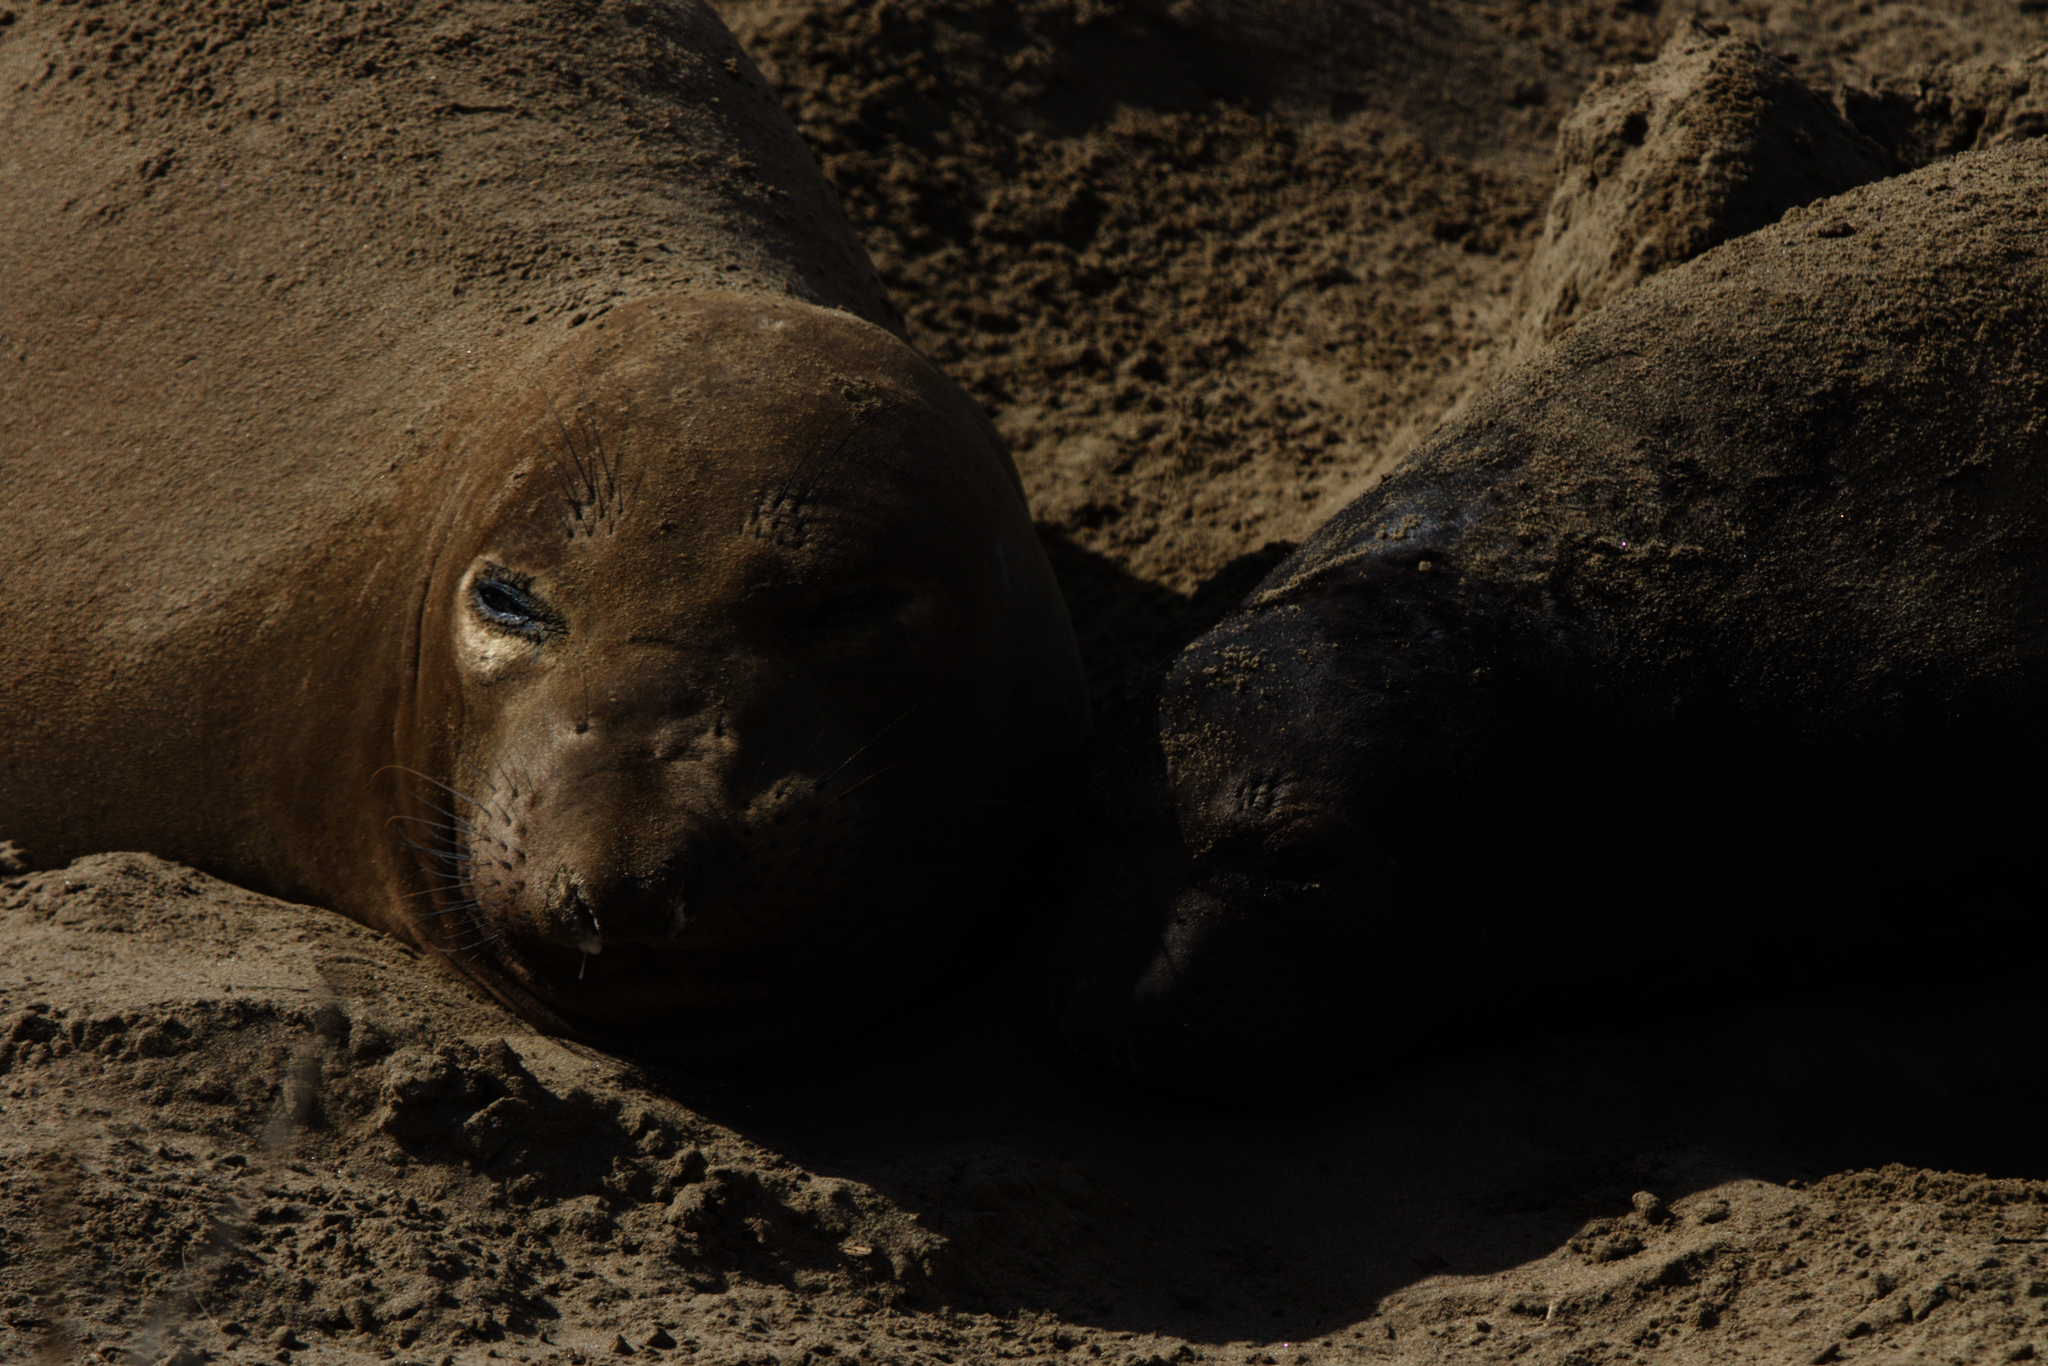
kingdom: Animalia
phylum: Chordata
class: Mammalia
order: Carnivora
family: Phocidae
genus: Mirounga
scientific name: Mirounga angustirostris
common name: Northern elephant seal
